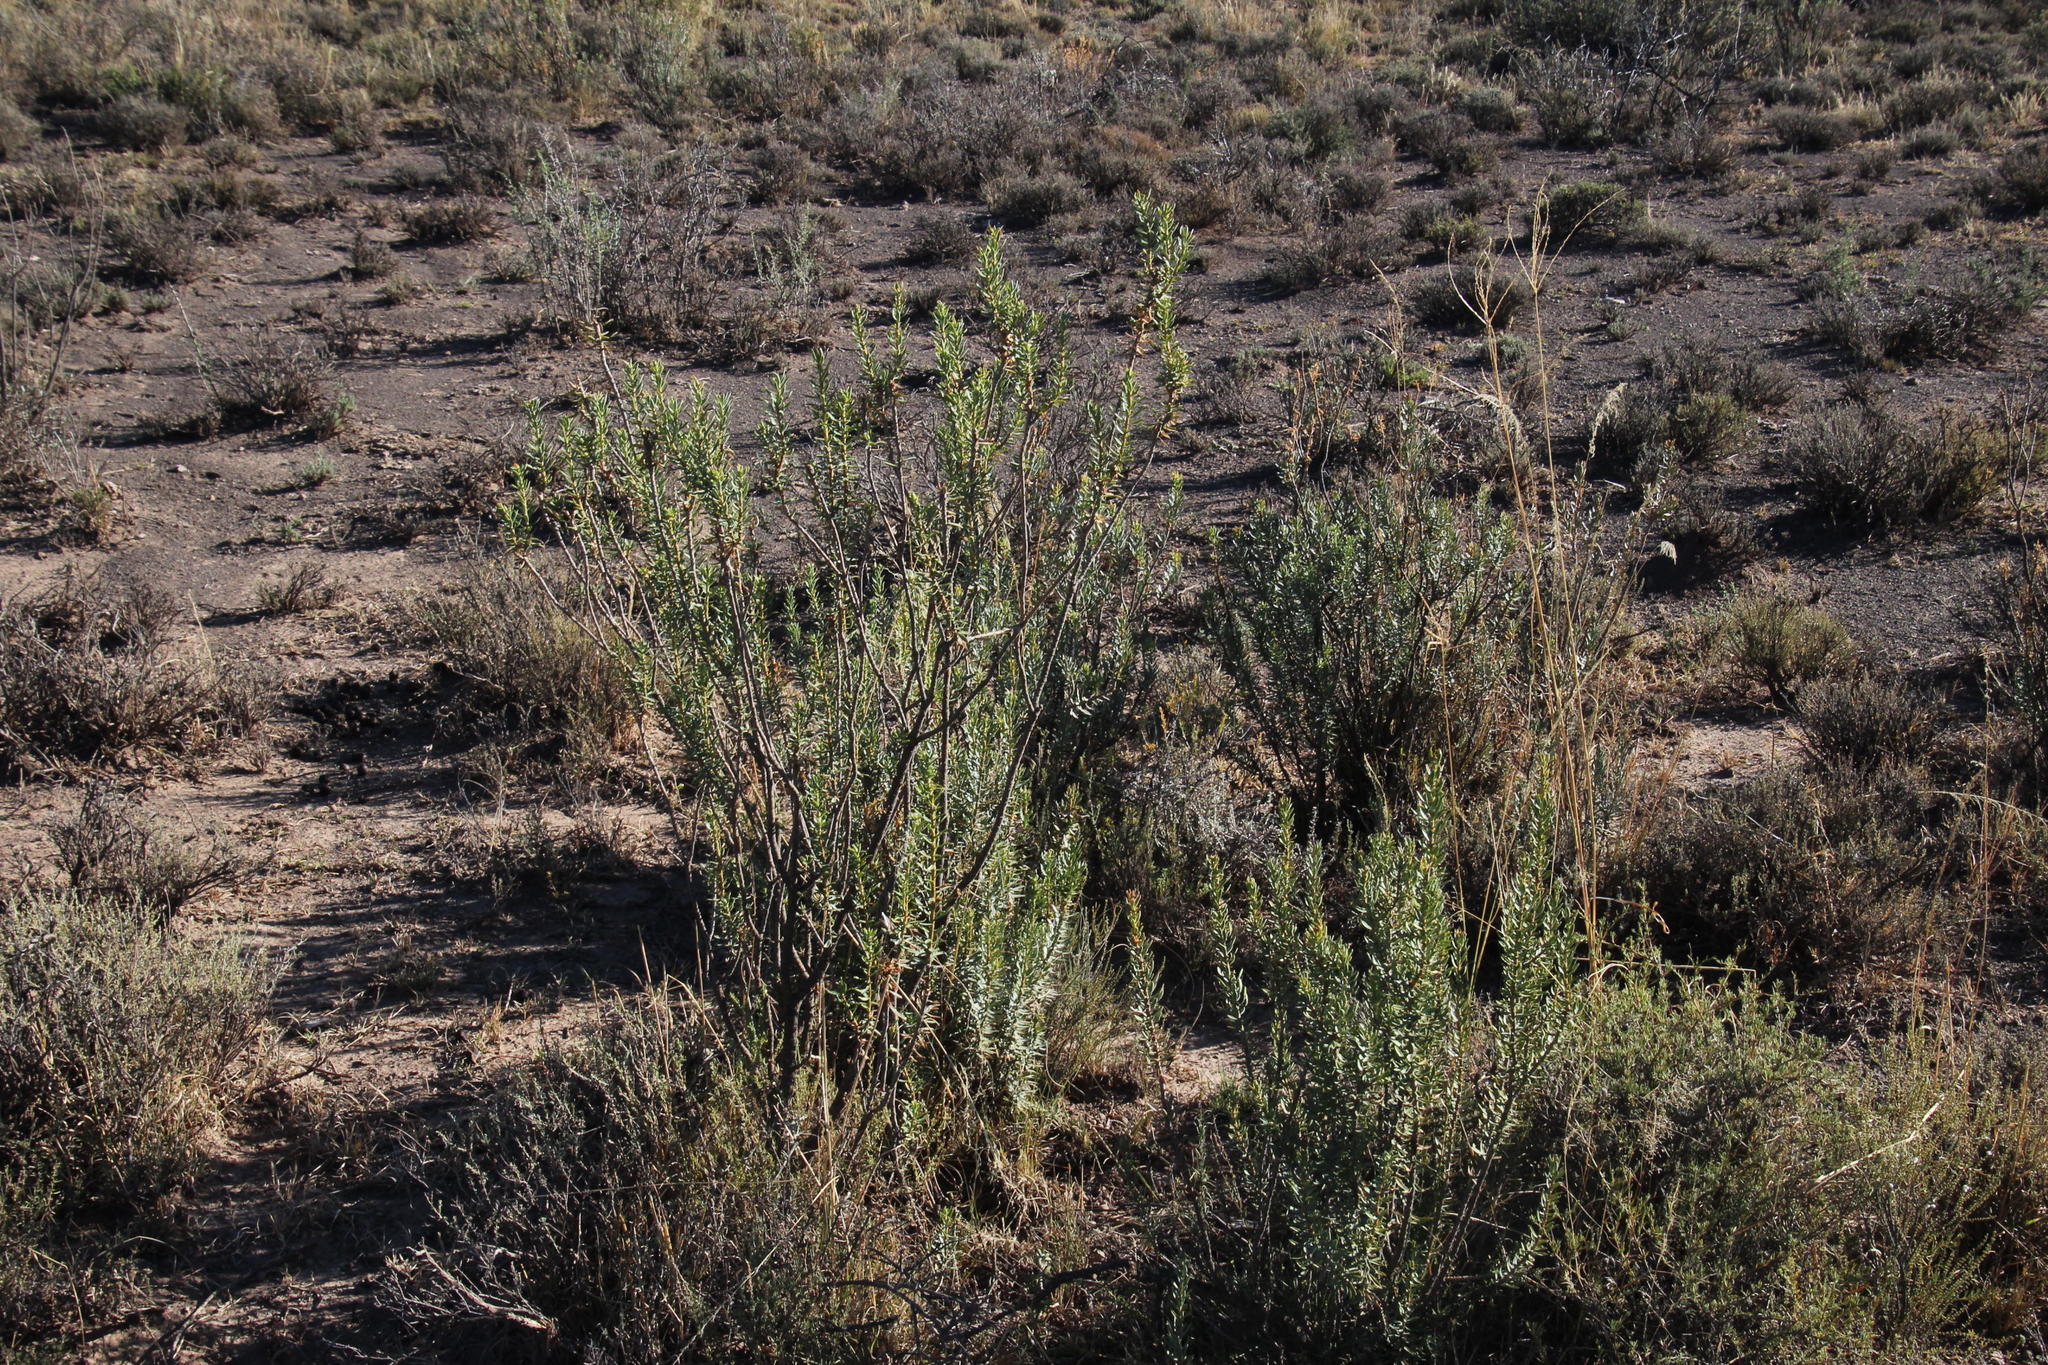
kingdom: Plantae
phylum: Tracheophyta
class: Magnoliopsida
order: Asterales
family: Asteraceae
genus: Euryops
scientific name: Euryops lateriflorus
